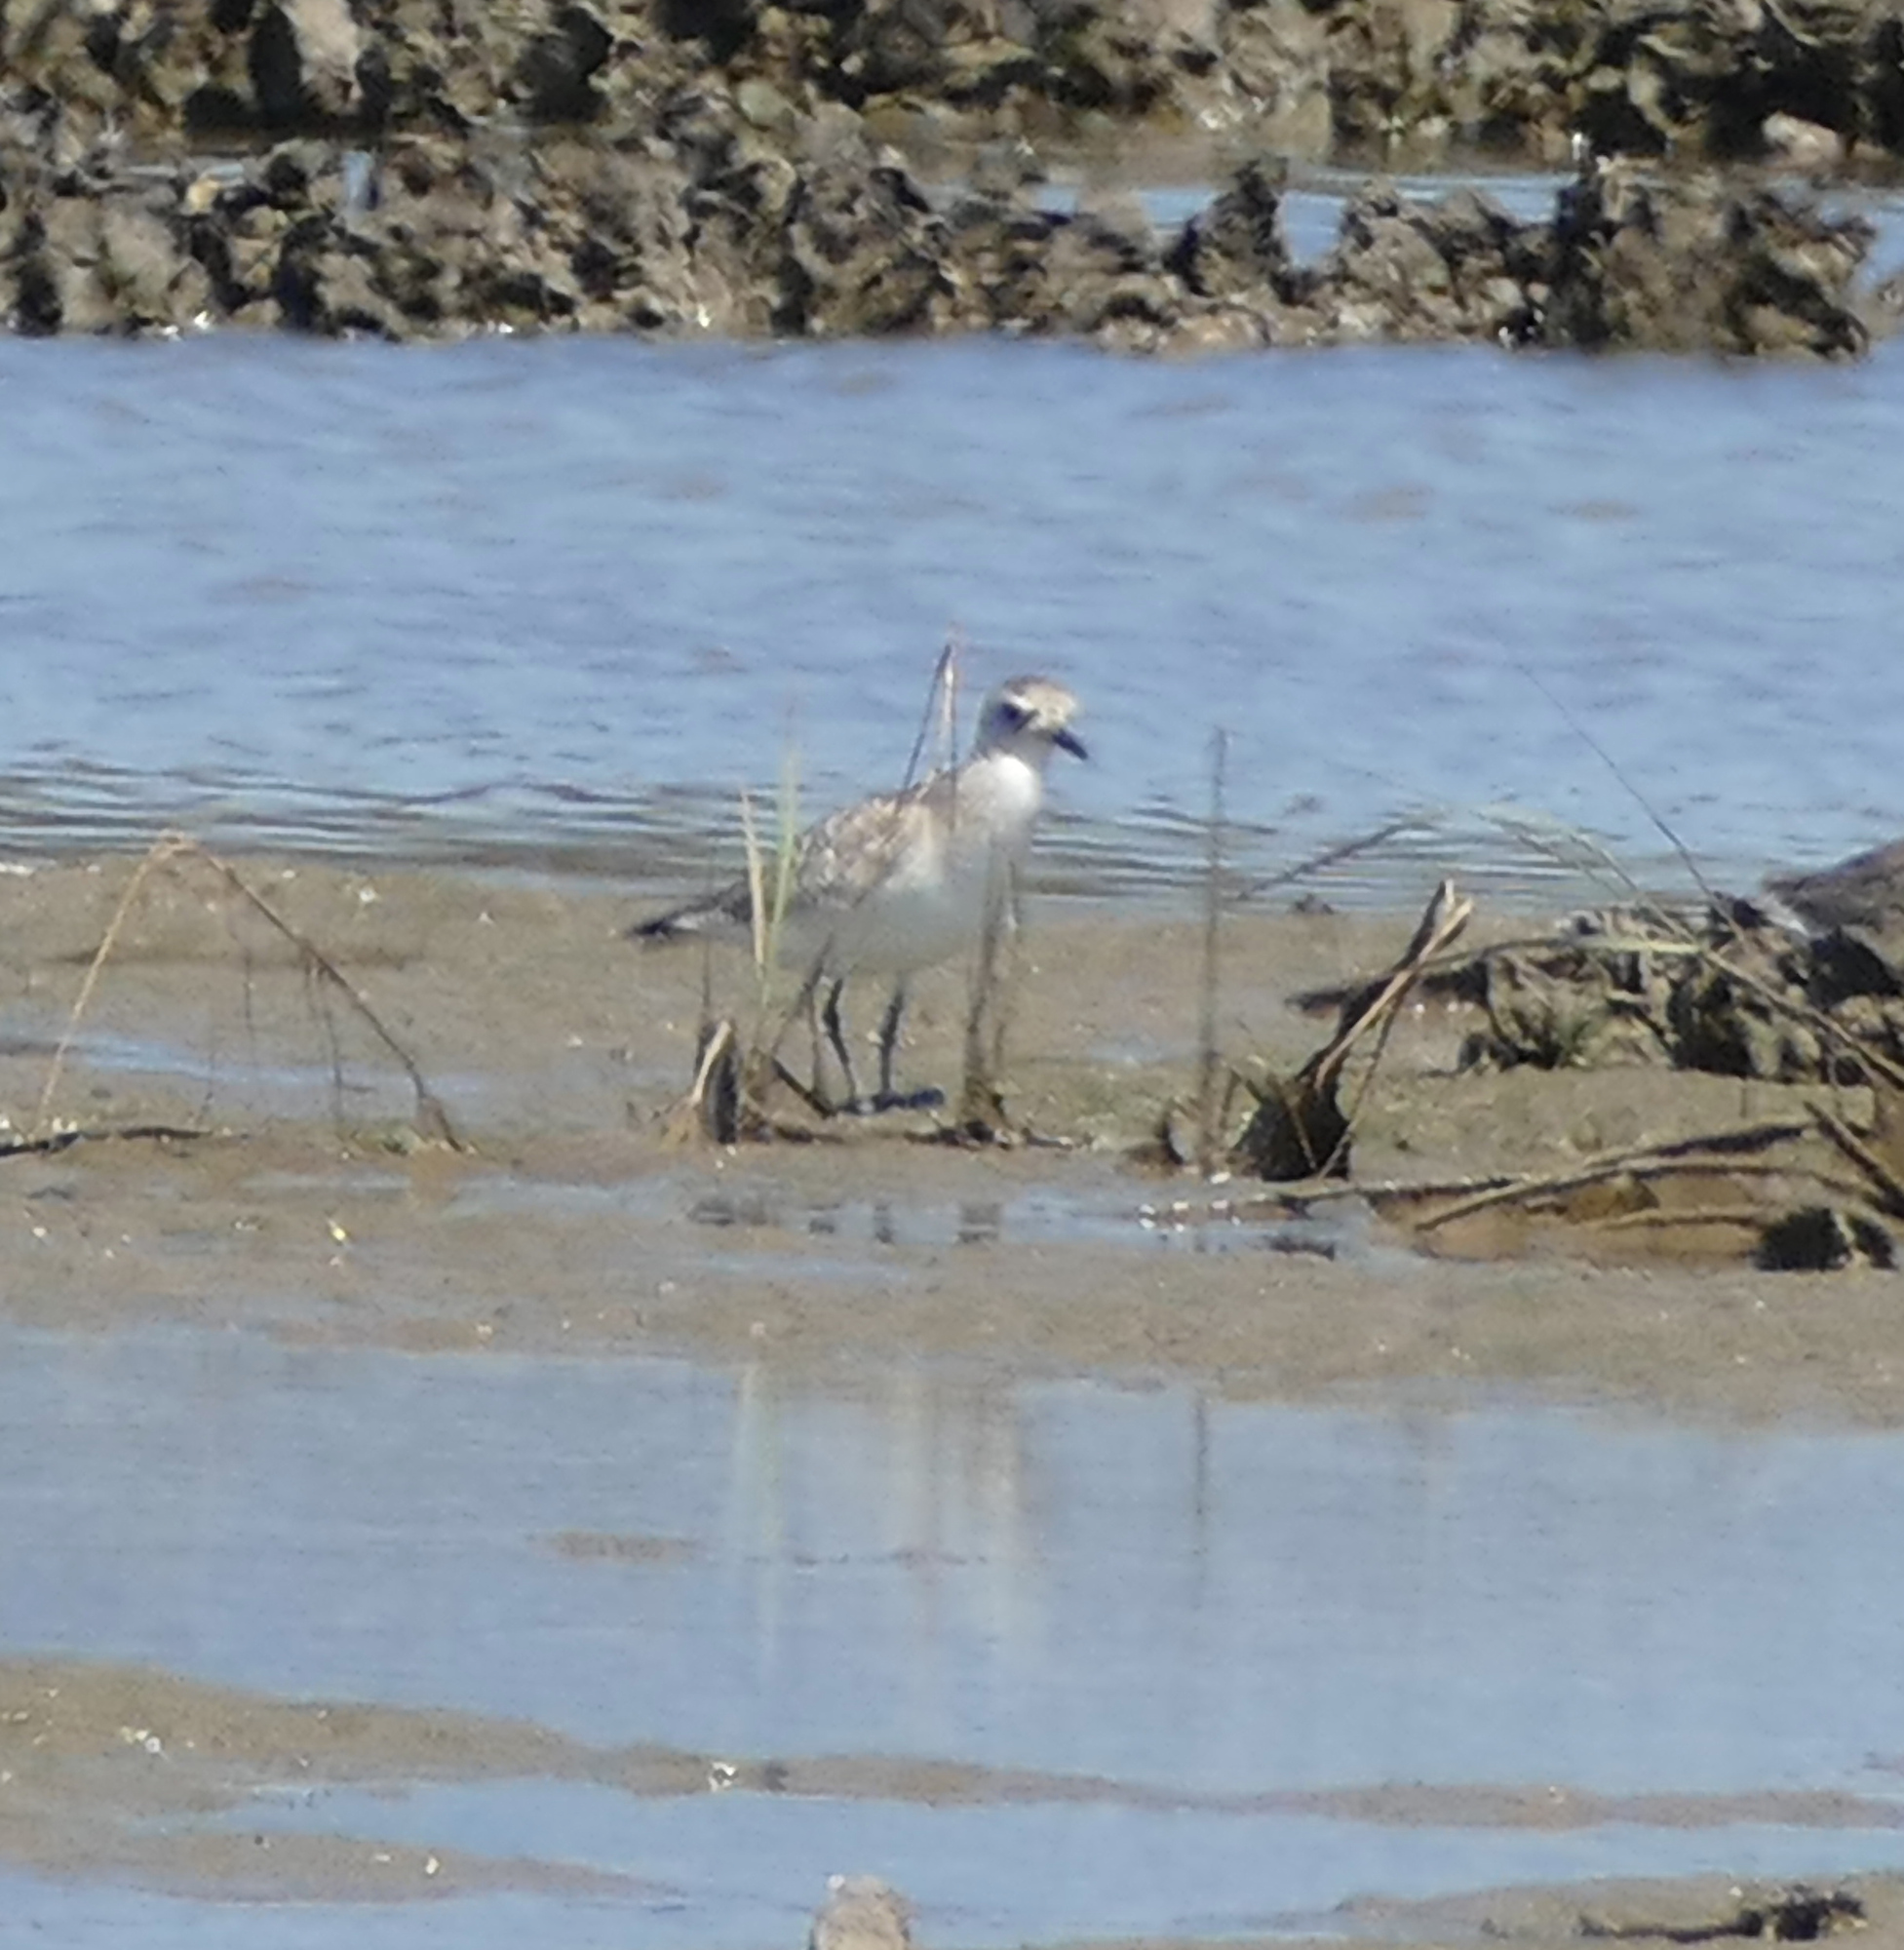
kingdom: Animalia
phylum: Chordata
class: Aves
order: Charadriiformes
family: Charadriidae
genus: Pluvialis
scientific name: Pluvialis squatarola
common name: Grey plover
